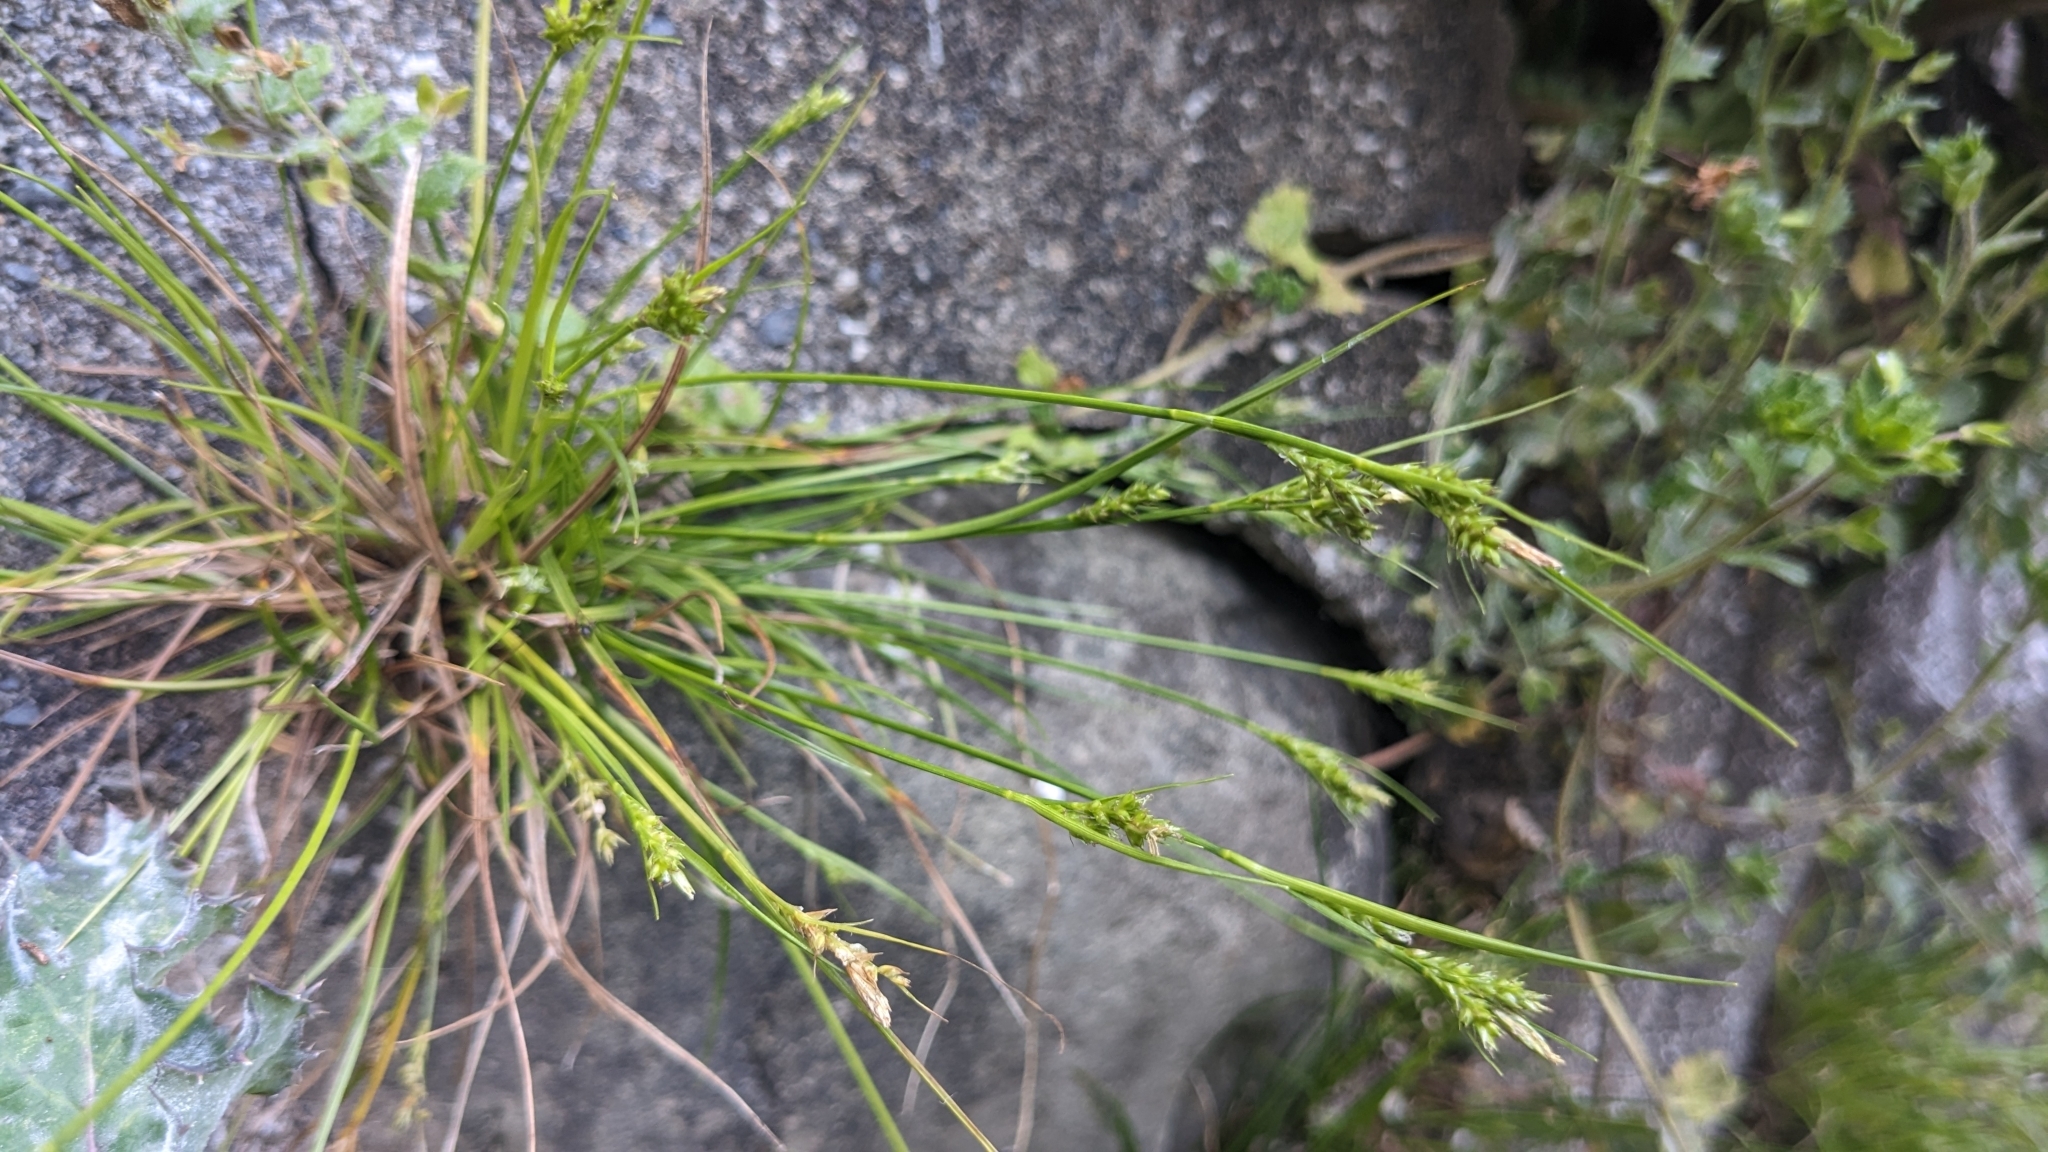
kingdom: Plantae
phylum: Tracheophyta
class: Liliopsida
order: Poales
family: Cyperaceae
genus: Carex
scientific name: Carex breviculmis
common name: Asian shortstem sedge
